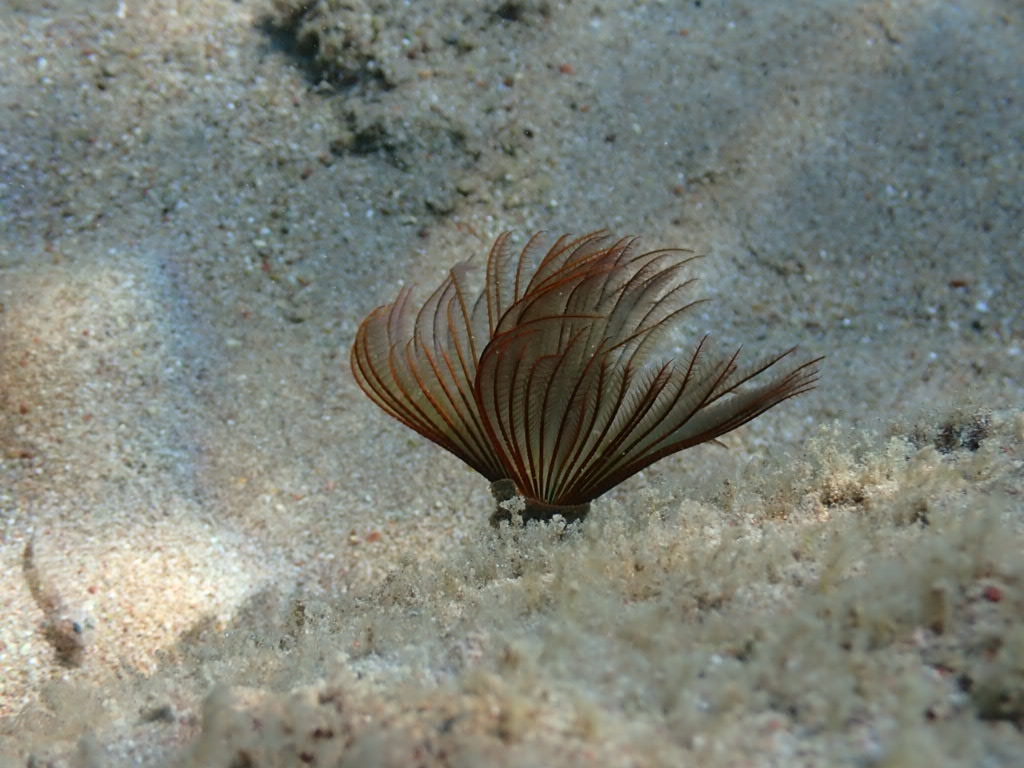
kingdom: Animalia
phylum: Annelida
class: Polychaeta
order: Sabellida
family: Sabellidae
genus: Branchiomma
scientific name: Branchiomma luctuosum
